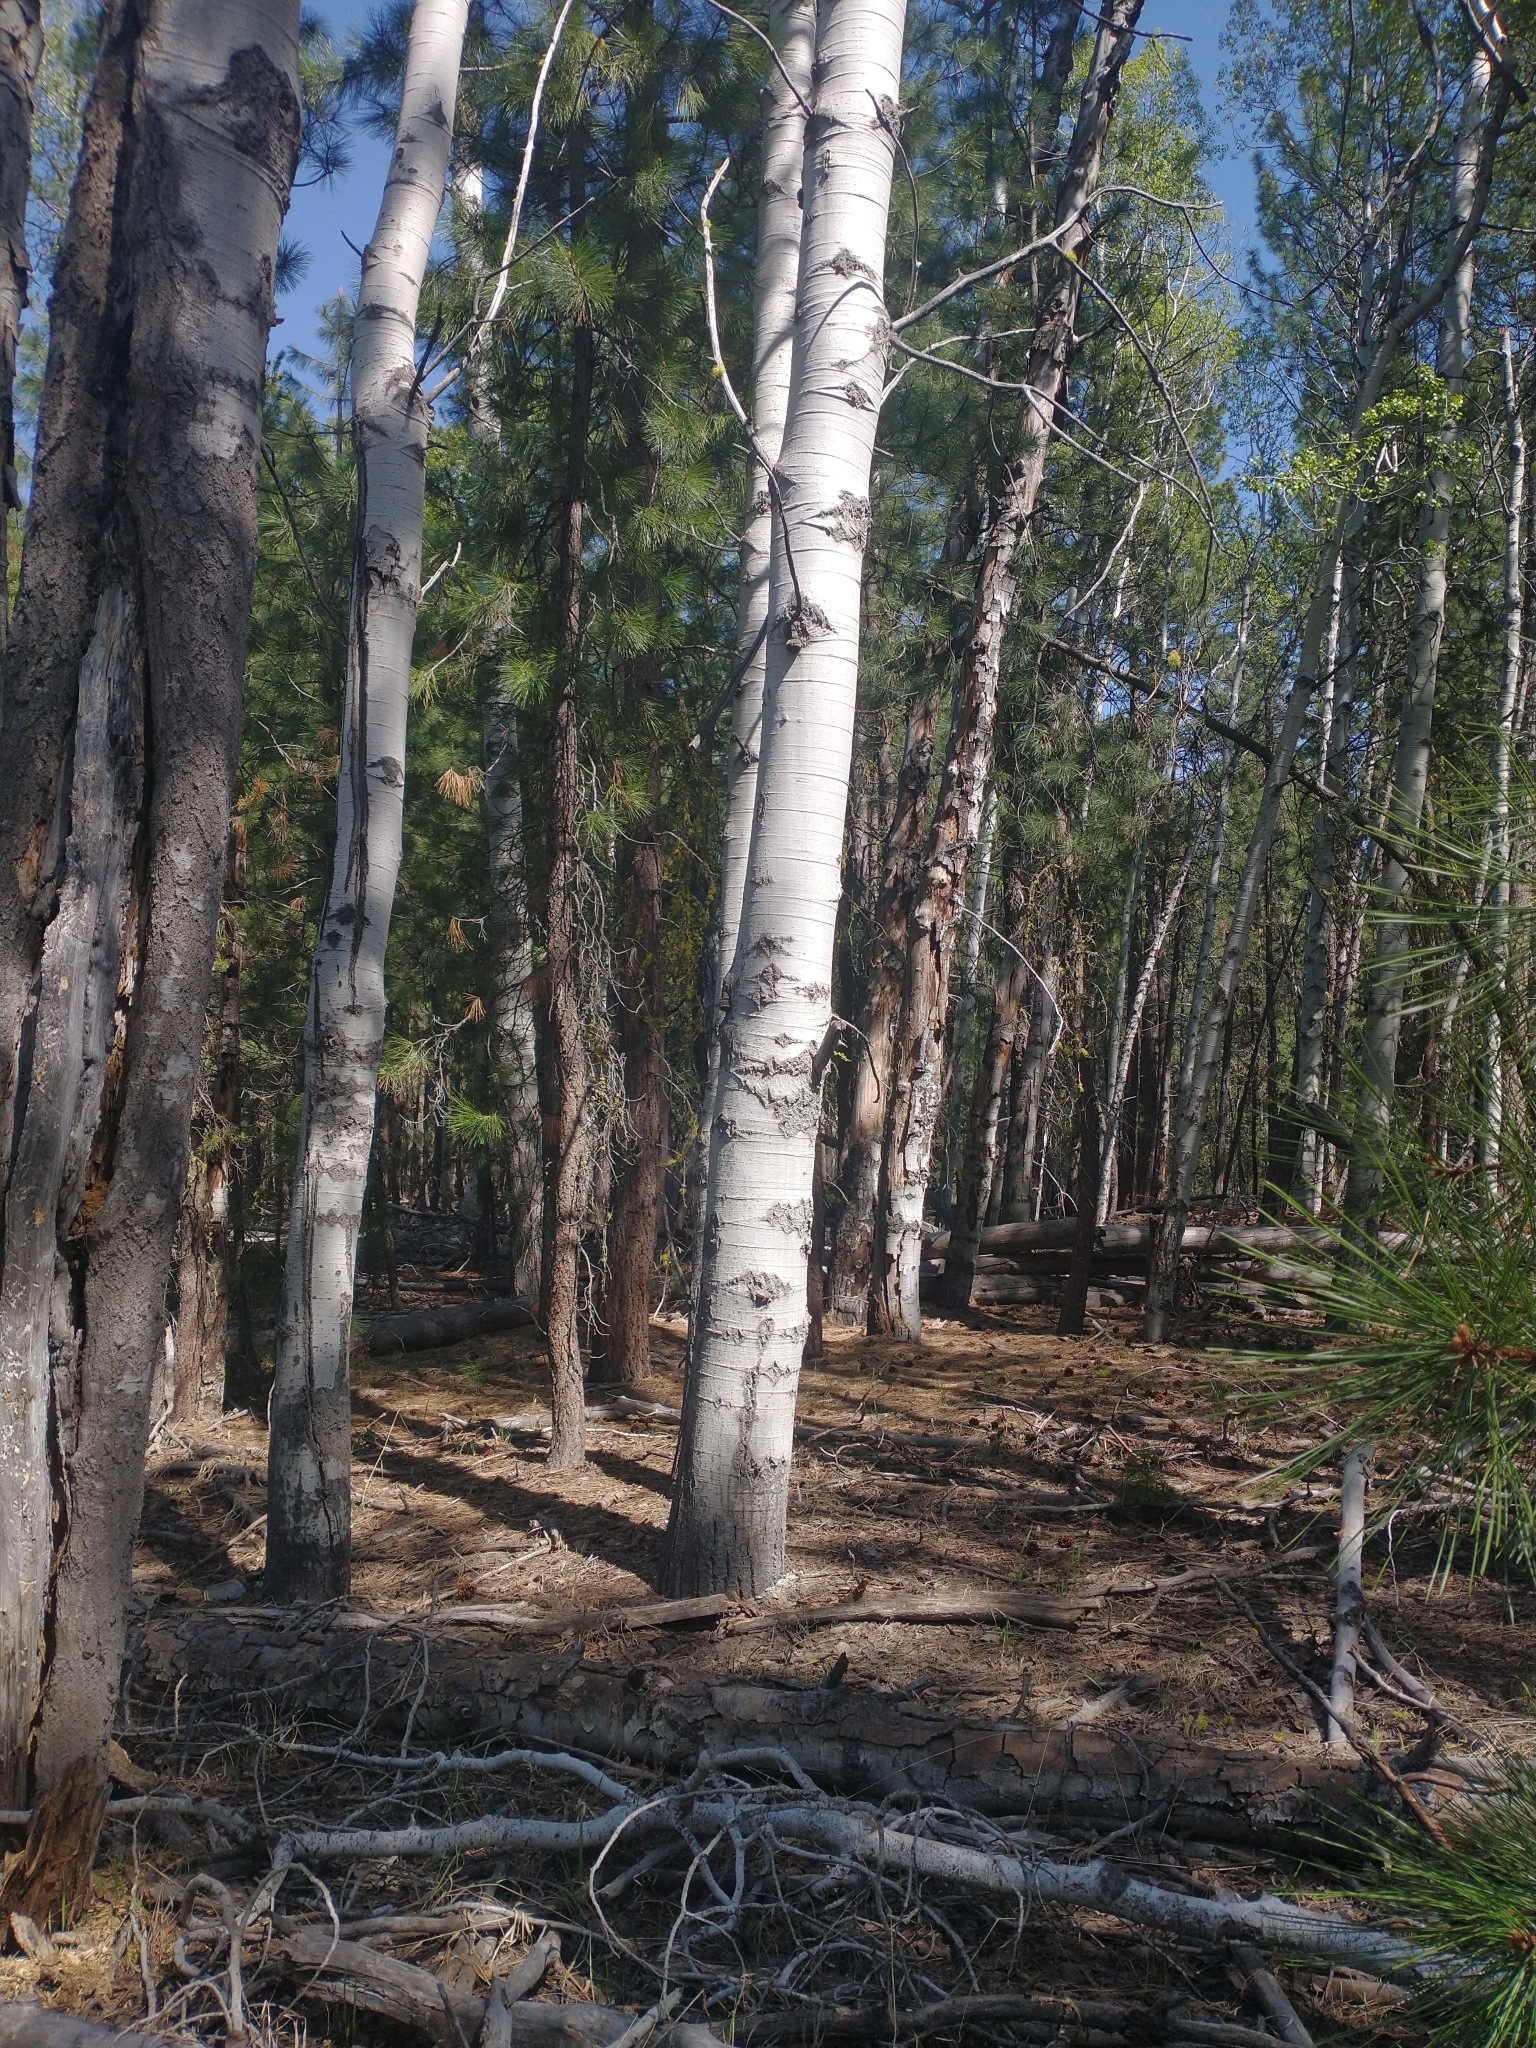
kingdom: Plantae
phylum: Tracheophyta
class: Magnoliopsida
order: Malpighiales
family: Salicaceae
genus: Populus
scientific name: Populus tremuloides
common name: Quaking aspen
